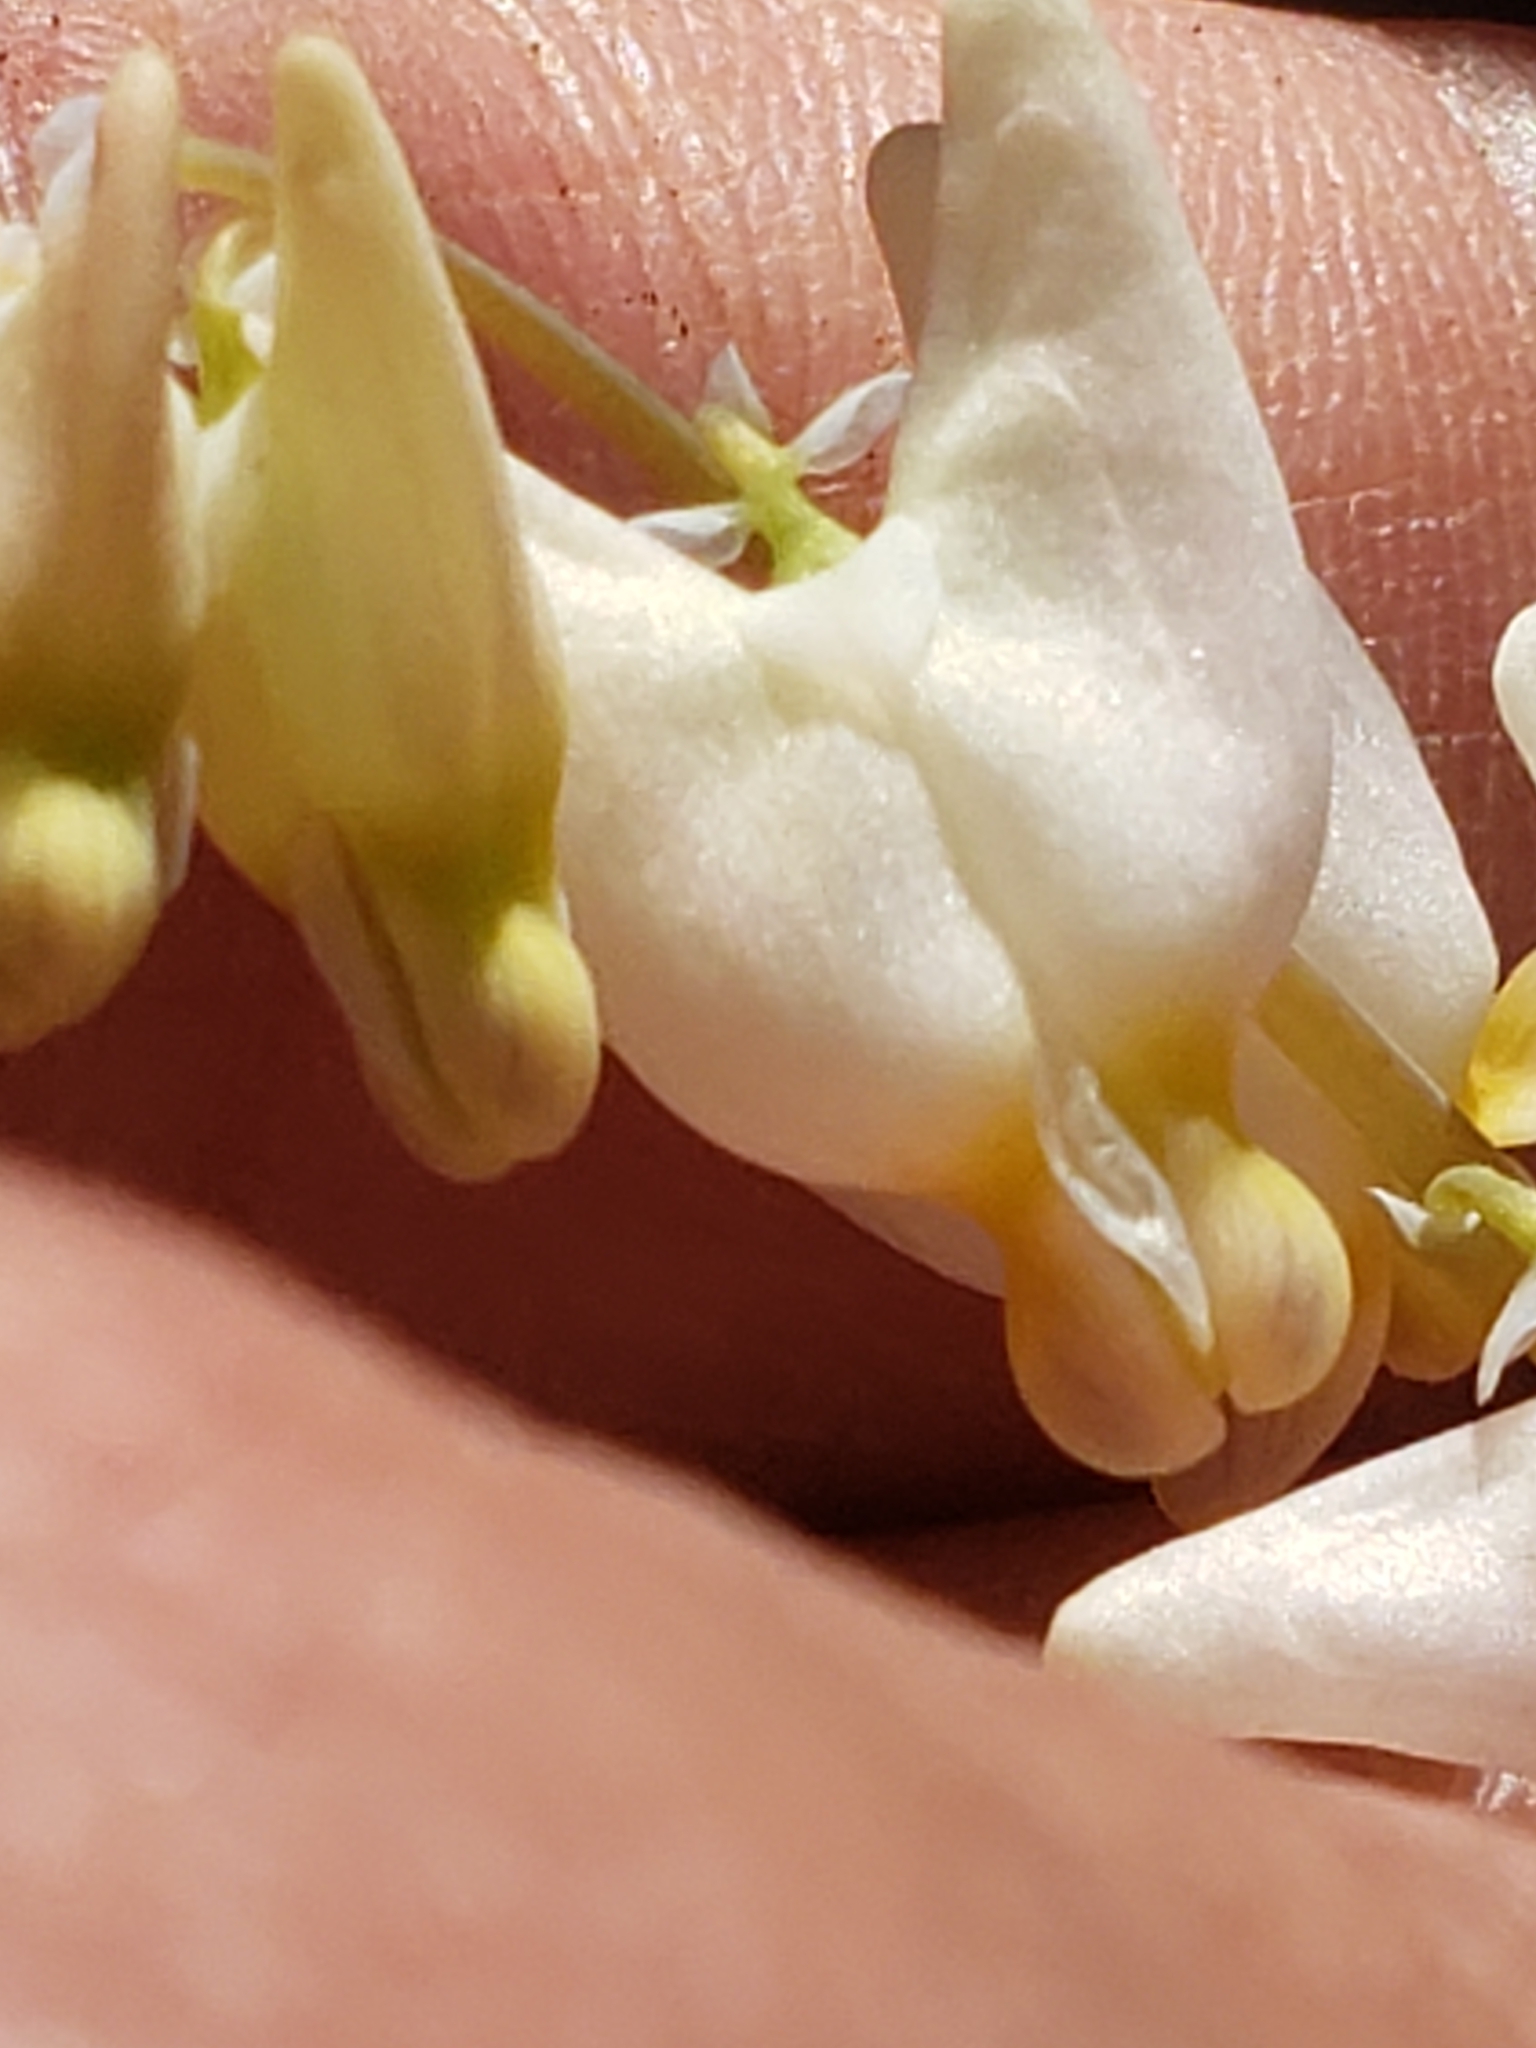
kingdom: Plantae
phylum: Tracheophyta
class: Magnoliopsida
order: Ranunculales
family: Papaveraceae
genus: Dicentra
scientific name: Dicentra cucullaria
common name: Dutchman's breeches
